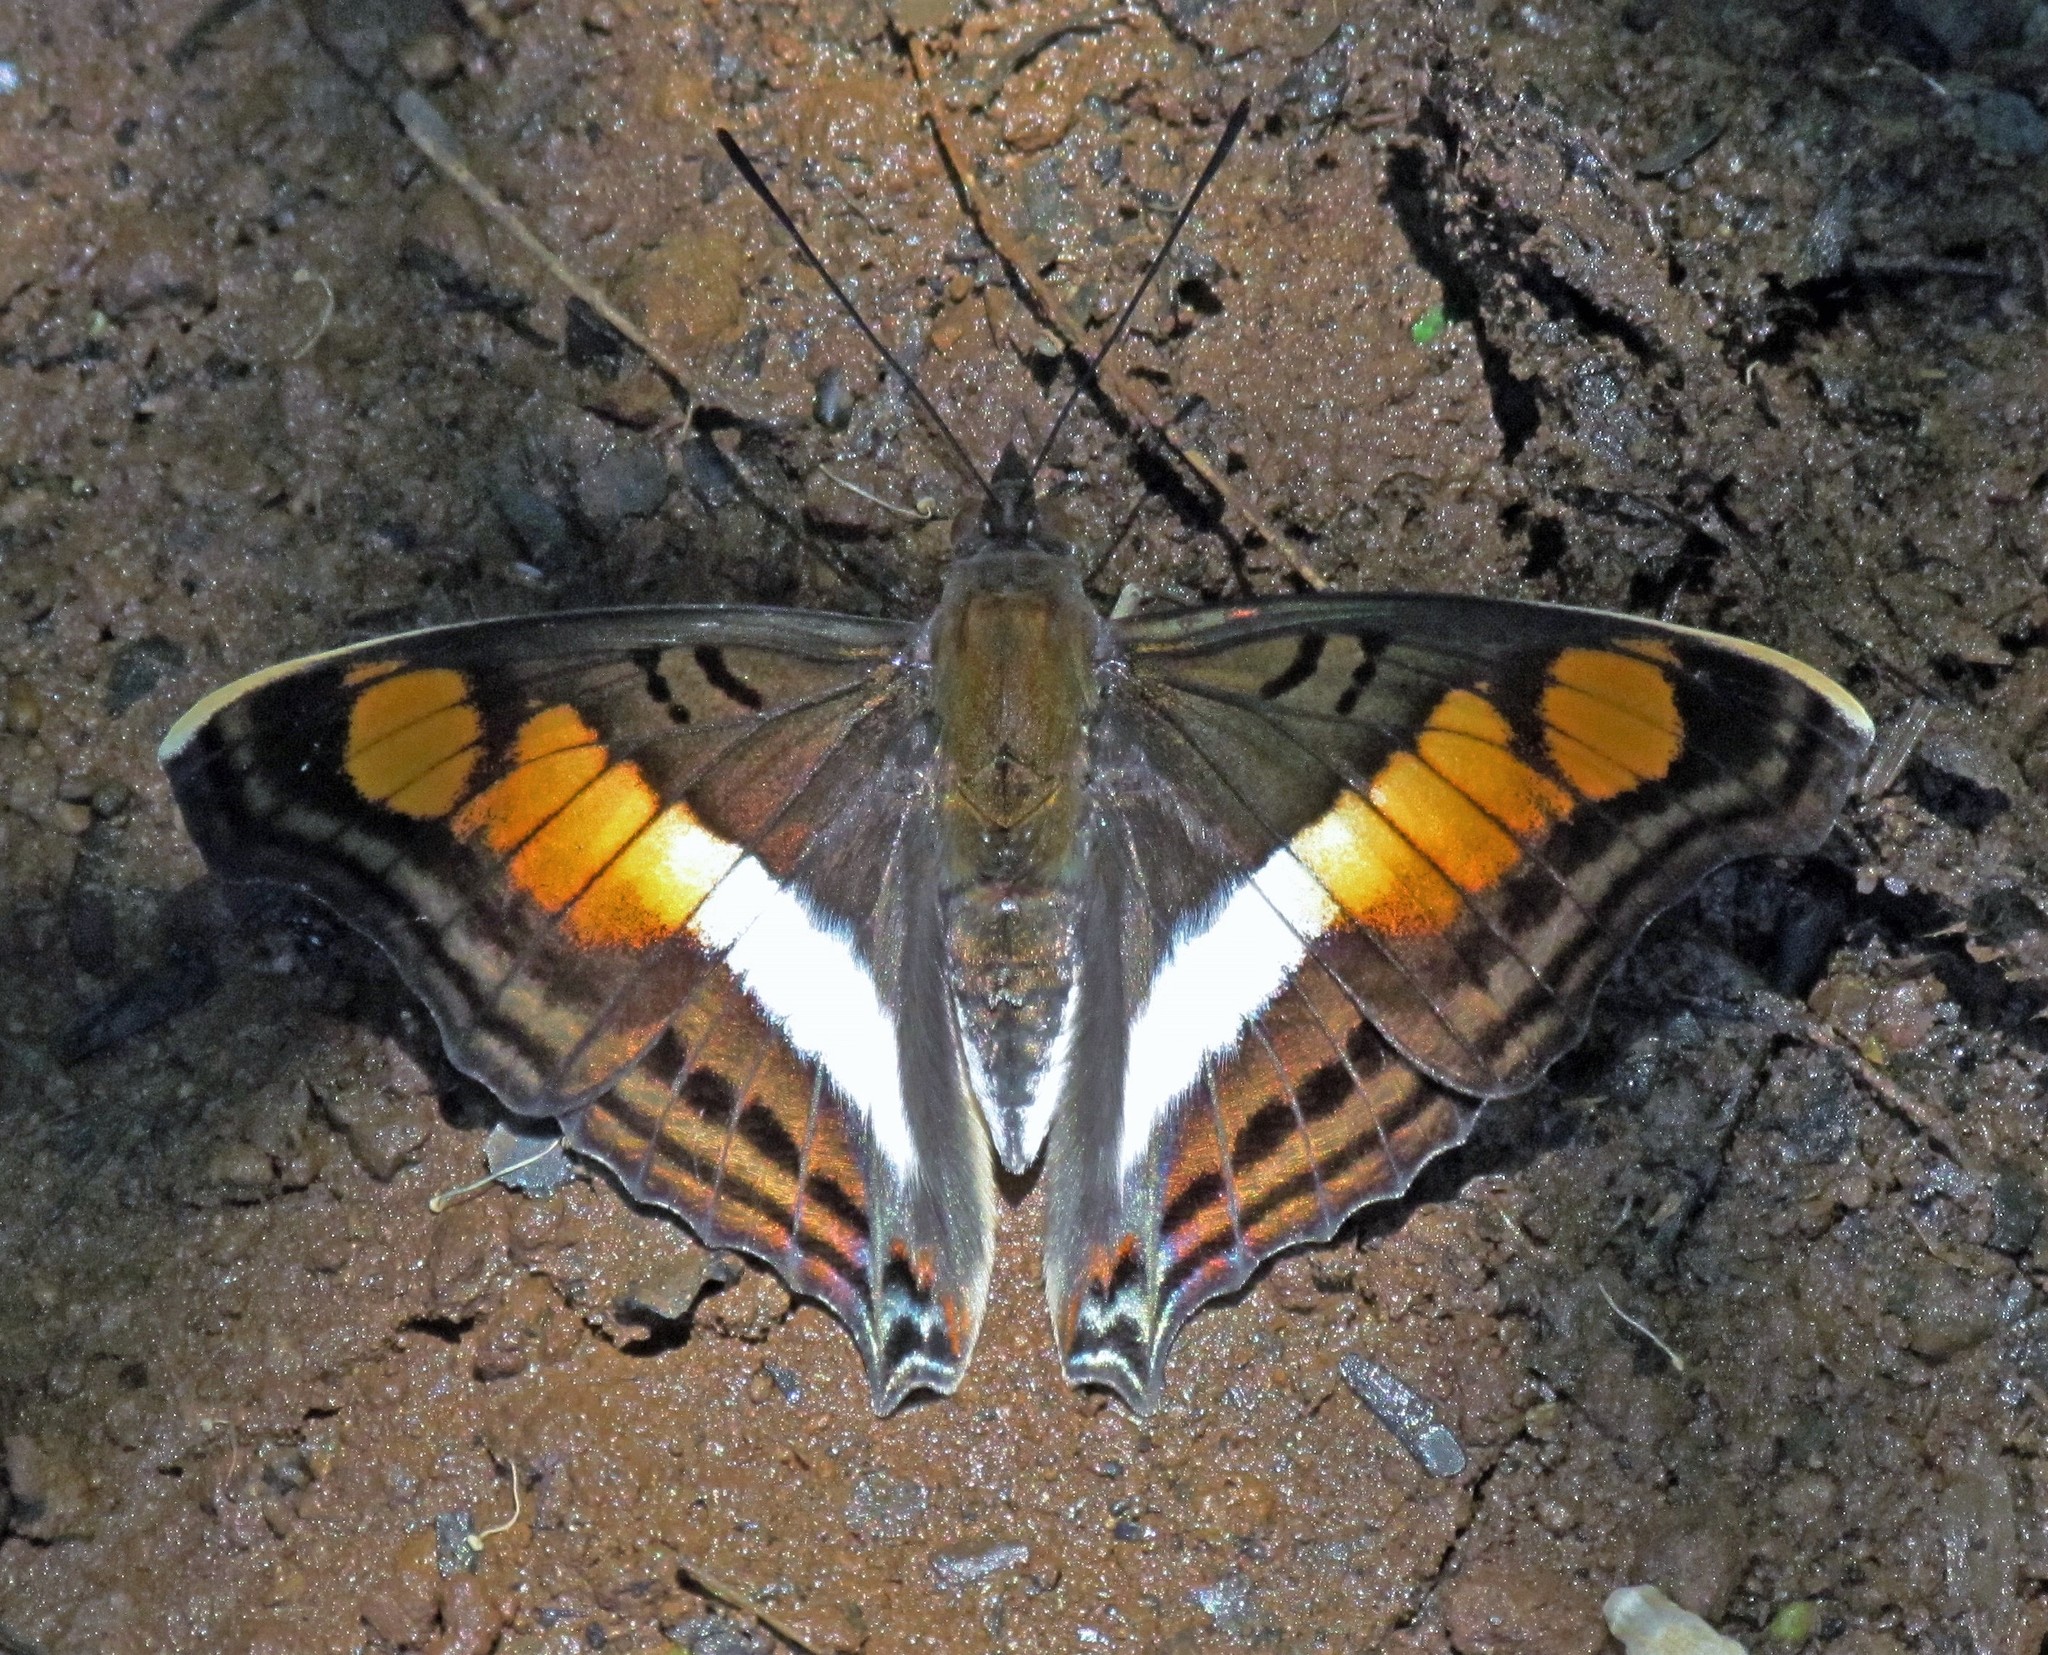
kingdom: Animalia
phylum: Arthropoda
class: Insecta
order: Lepidoptera
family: Nymphalidae
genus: Doxocopa
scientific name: Doxocopa linda
